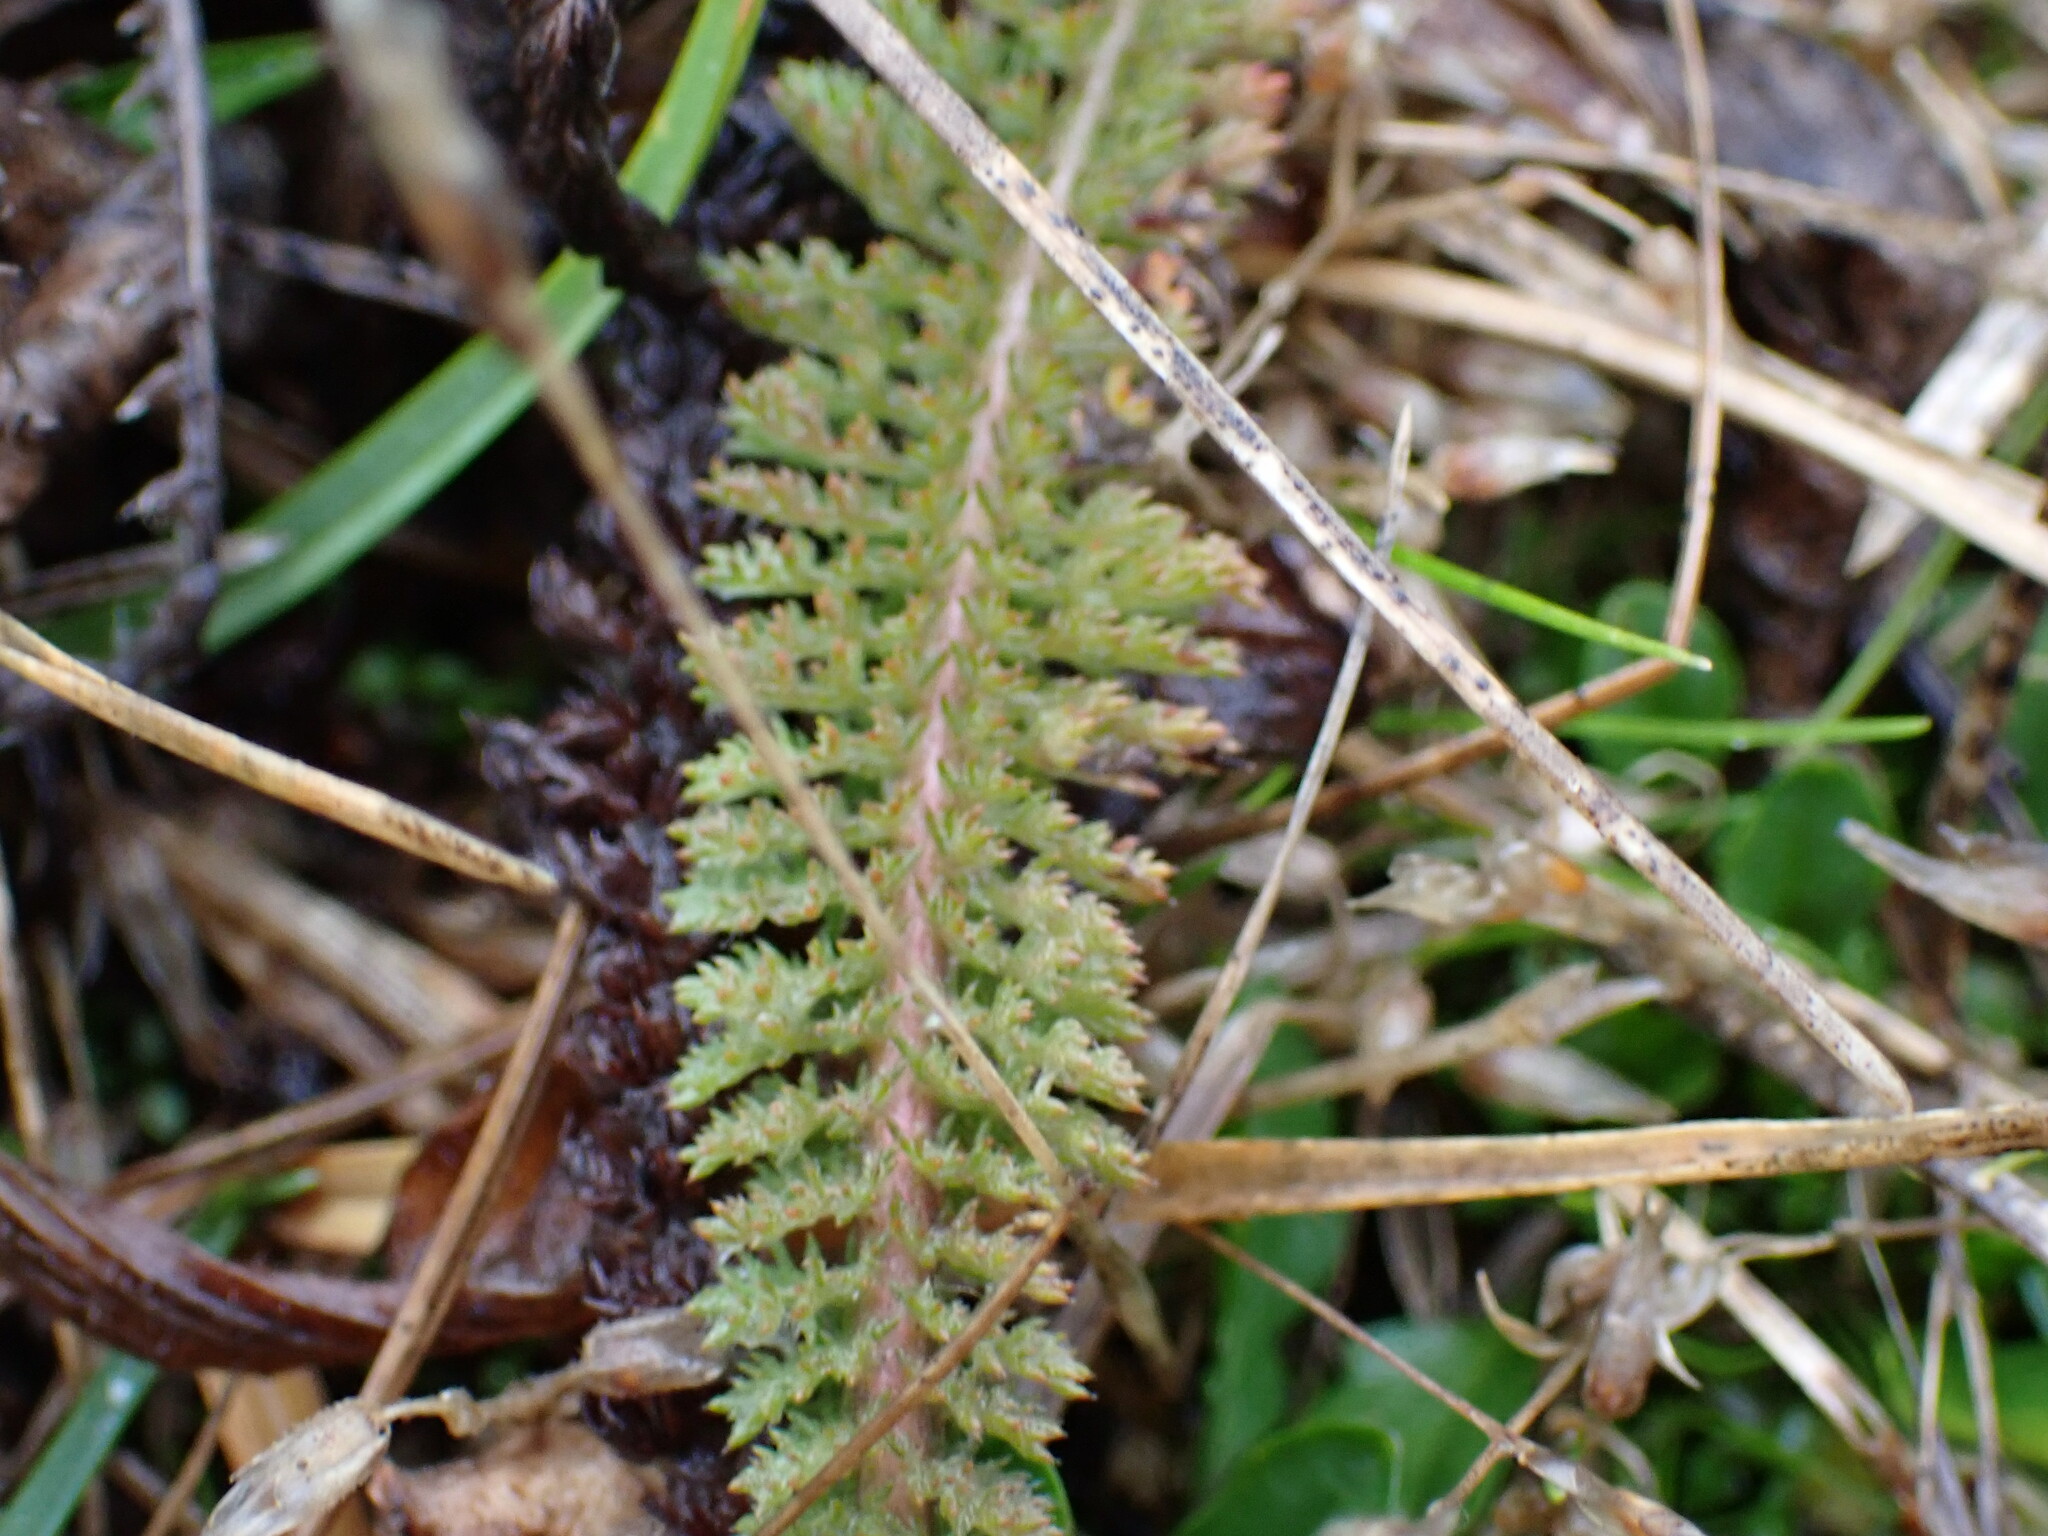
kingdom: Plantae
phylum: Tracheophyta
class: Magnoliopsida
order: Asterales
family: Asteraceae
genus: Achillea
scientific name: Achillea millefolium
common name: Yarrow
